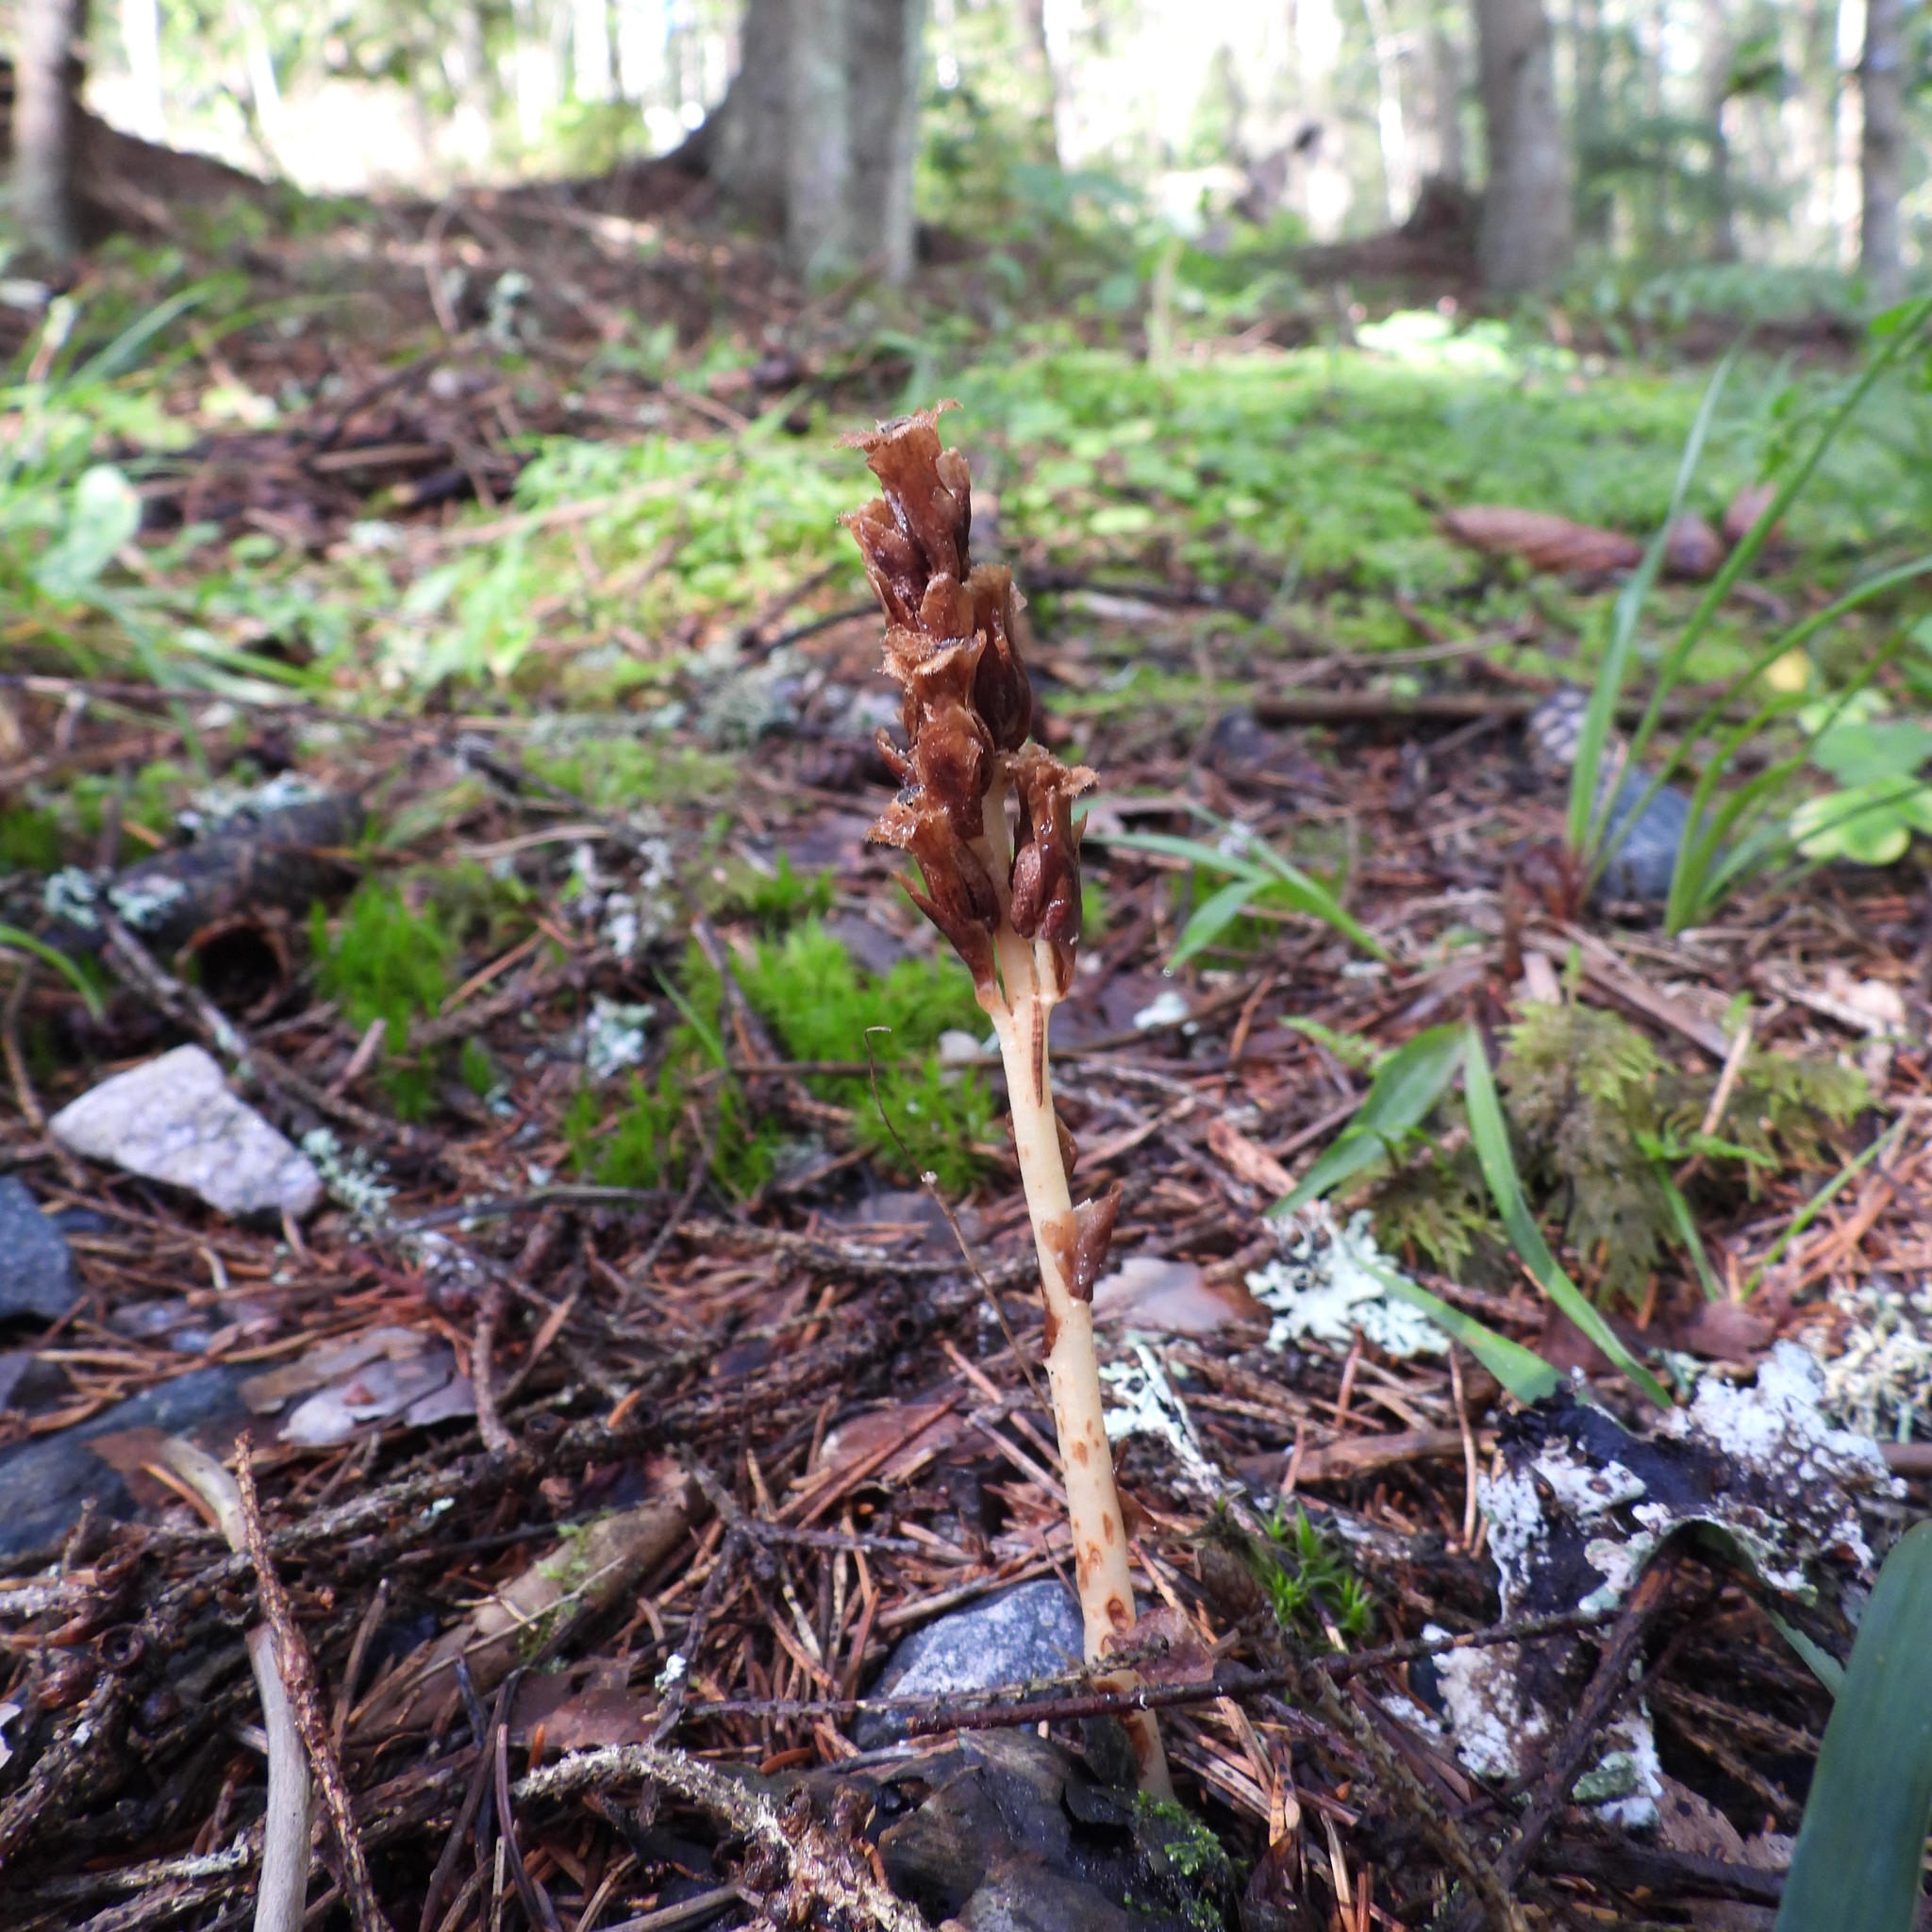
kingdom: Plantae
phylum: Tracheophyta
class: Magnoliopsida
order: Ericales
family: Ericaceae
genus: Hypopitys
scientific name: Hypopitys monotropa
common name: Yellow bird's-nest
